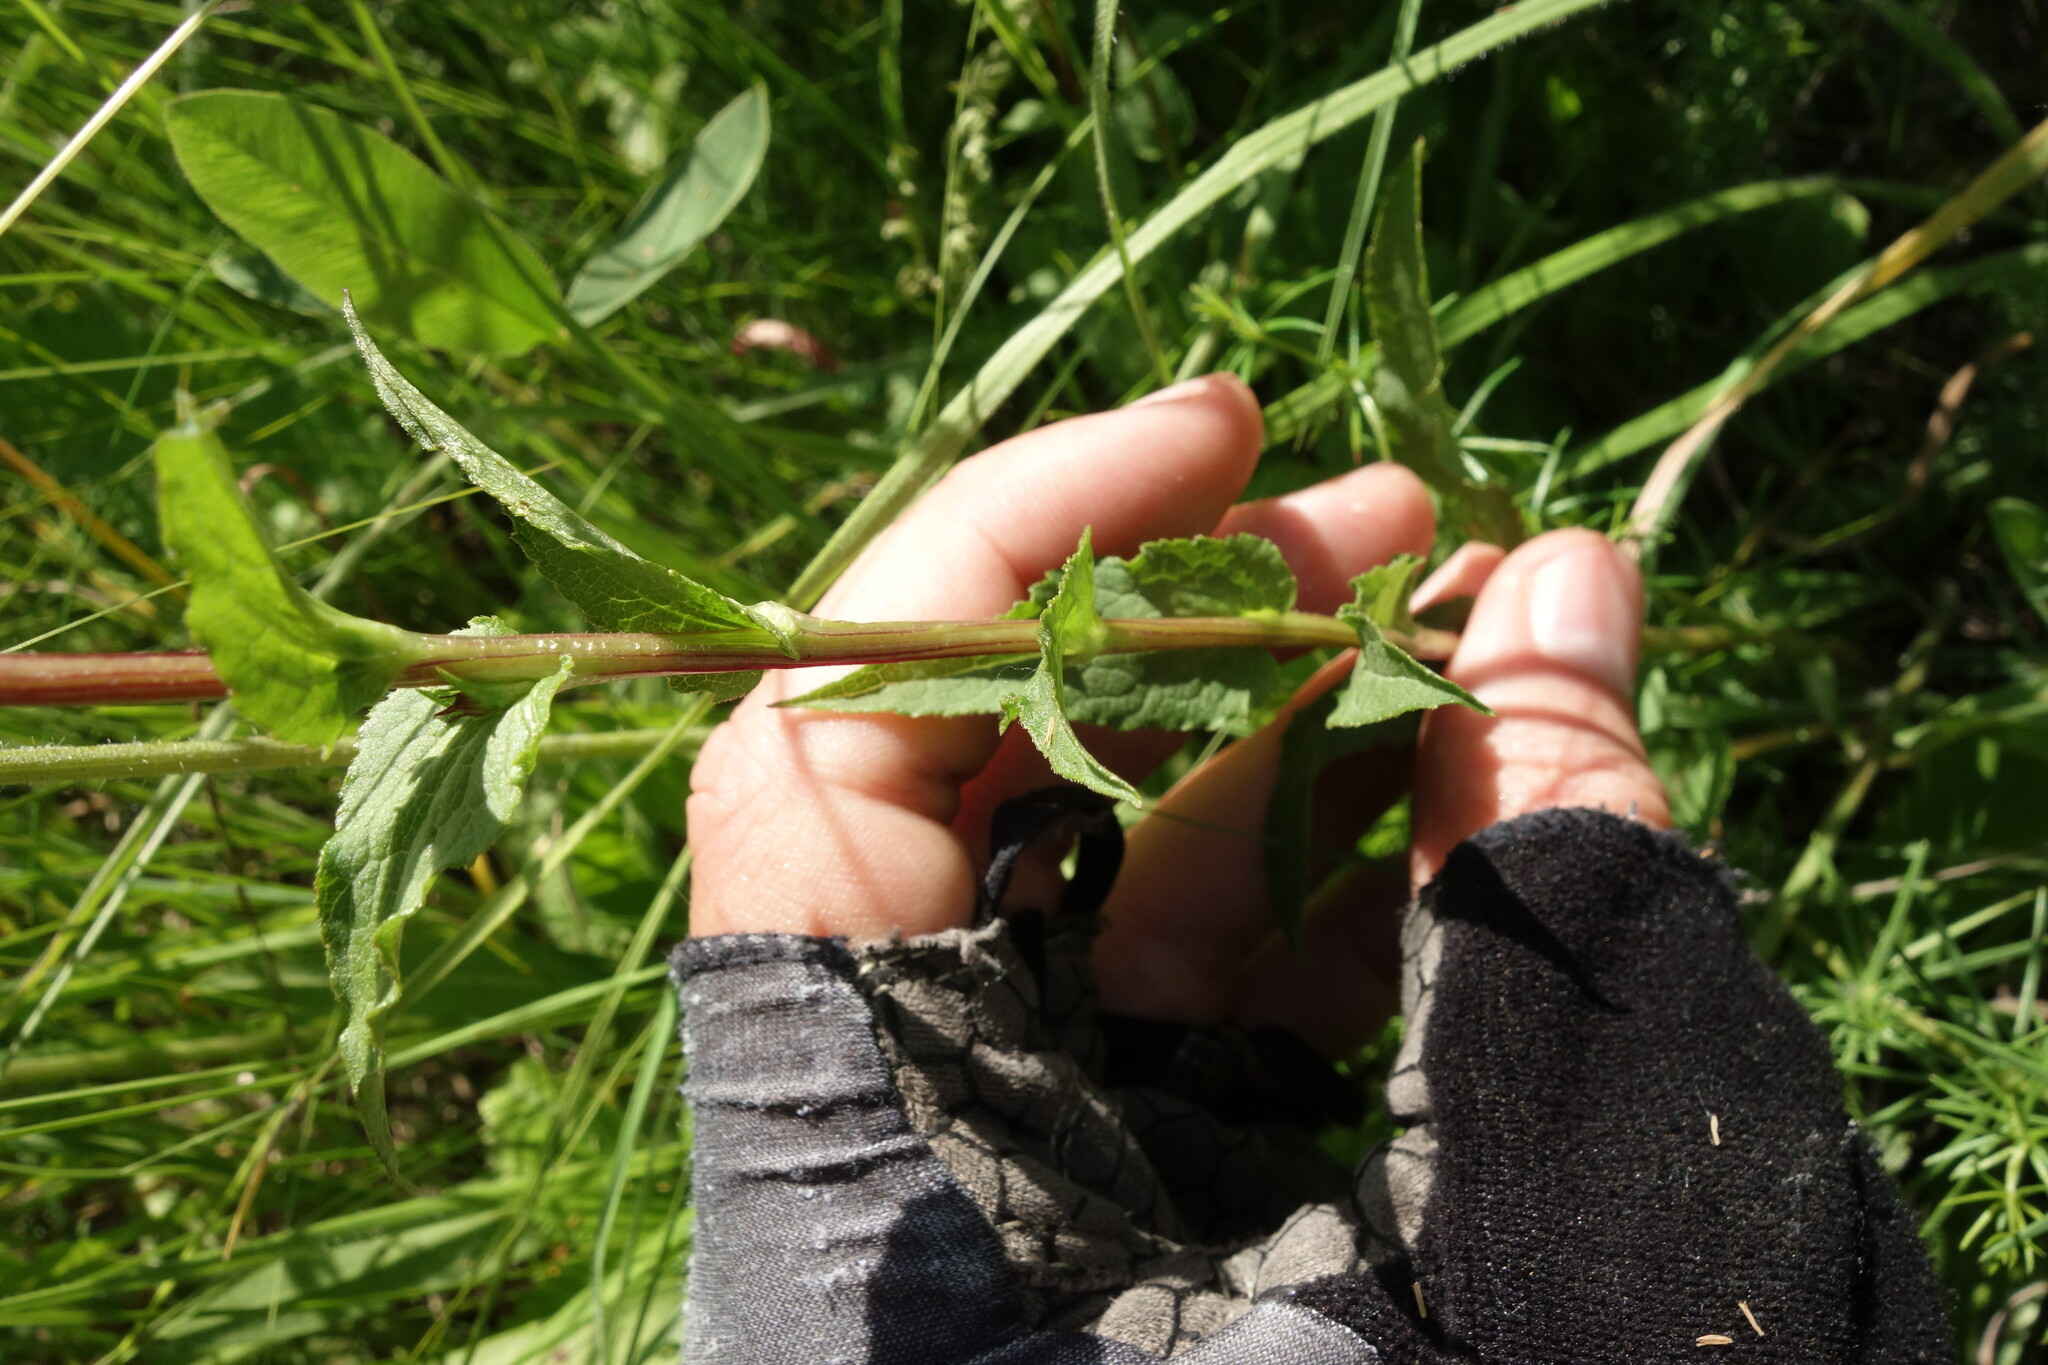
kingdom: Plantae
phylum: Tracheophyta
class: Magnoliopsida
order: Asterales
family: Campanulaceae
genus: Campanula
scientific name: Campanula glomerata
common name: Clustered bellflower
